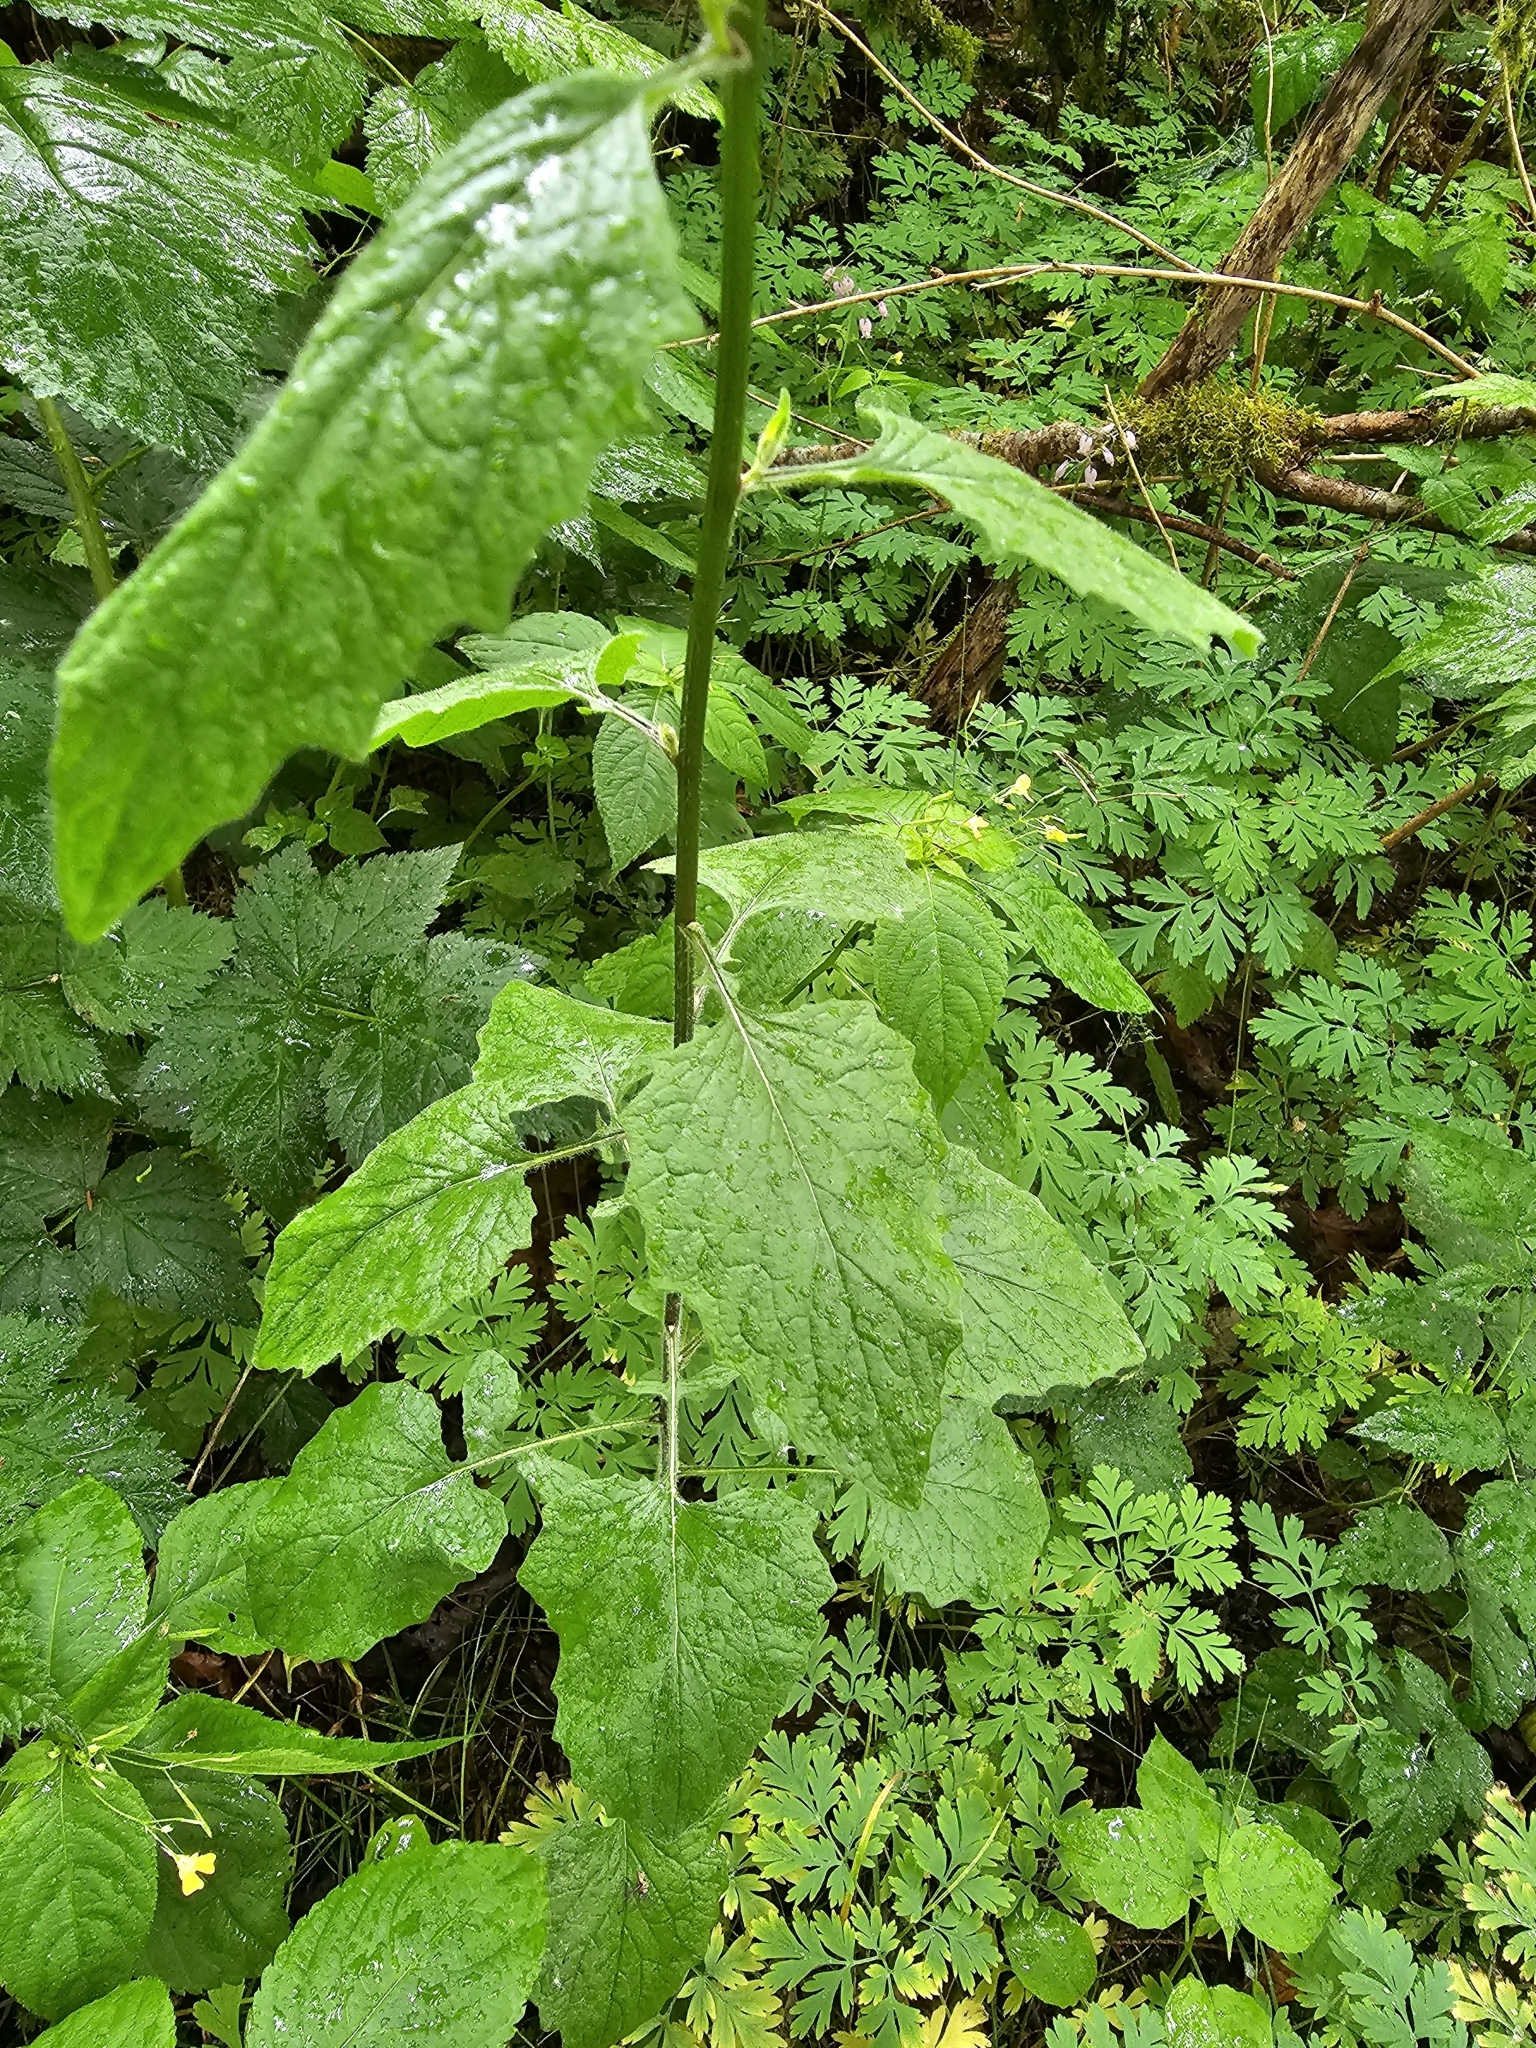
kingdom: Plantae
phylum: Tracheophyta
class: Magnoliopsida
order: Asterales
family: Asteraceae
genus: Lapsana
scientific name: Lapsana communis
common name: Nipplewort
